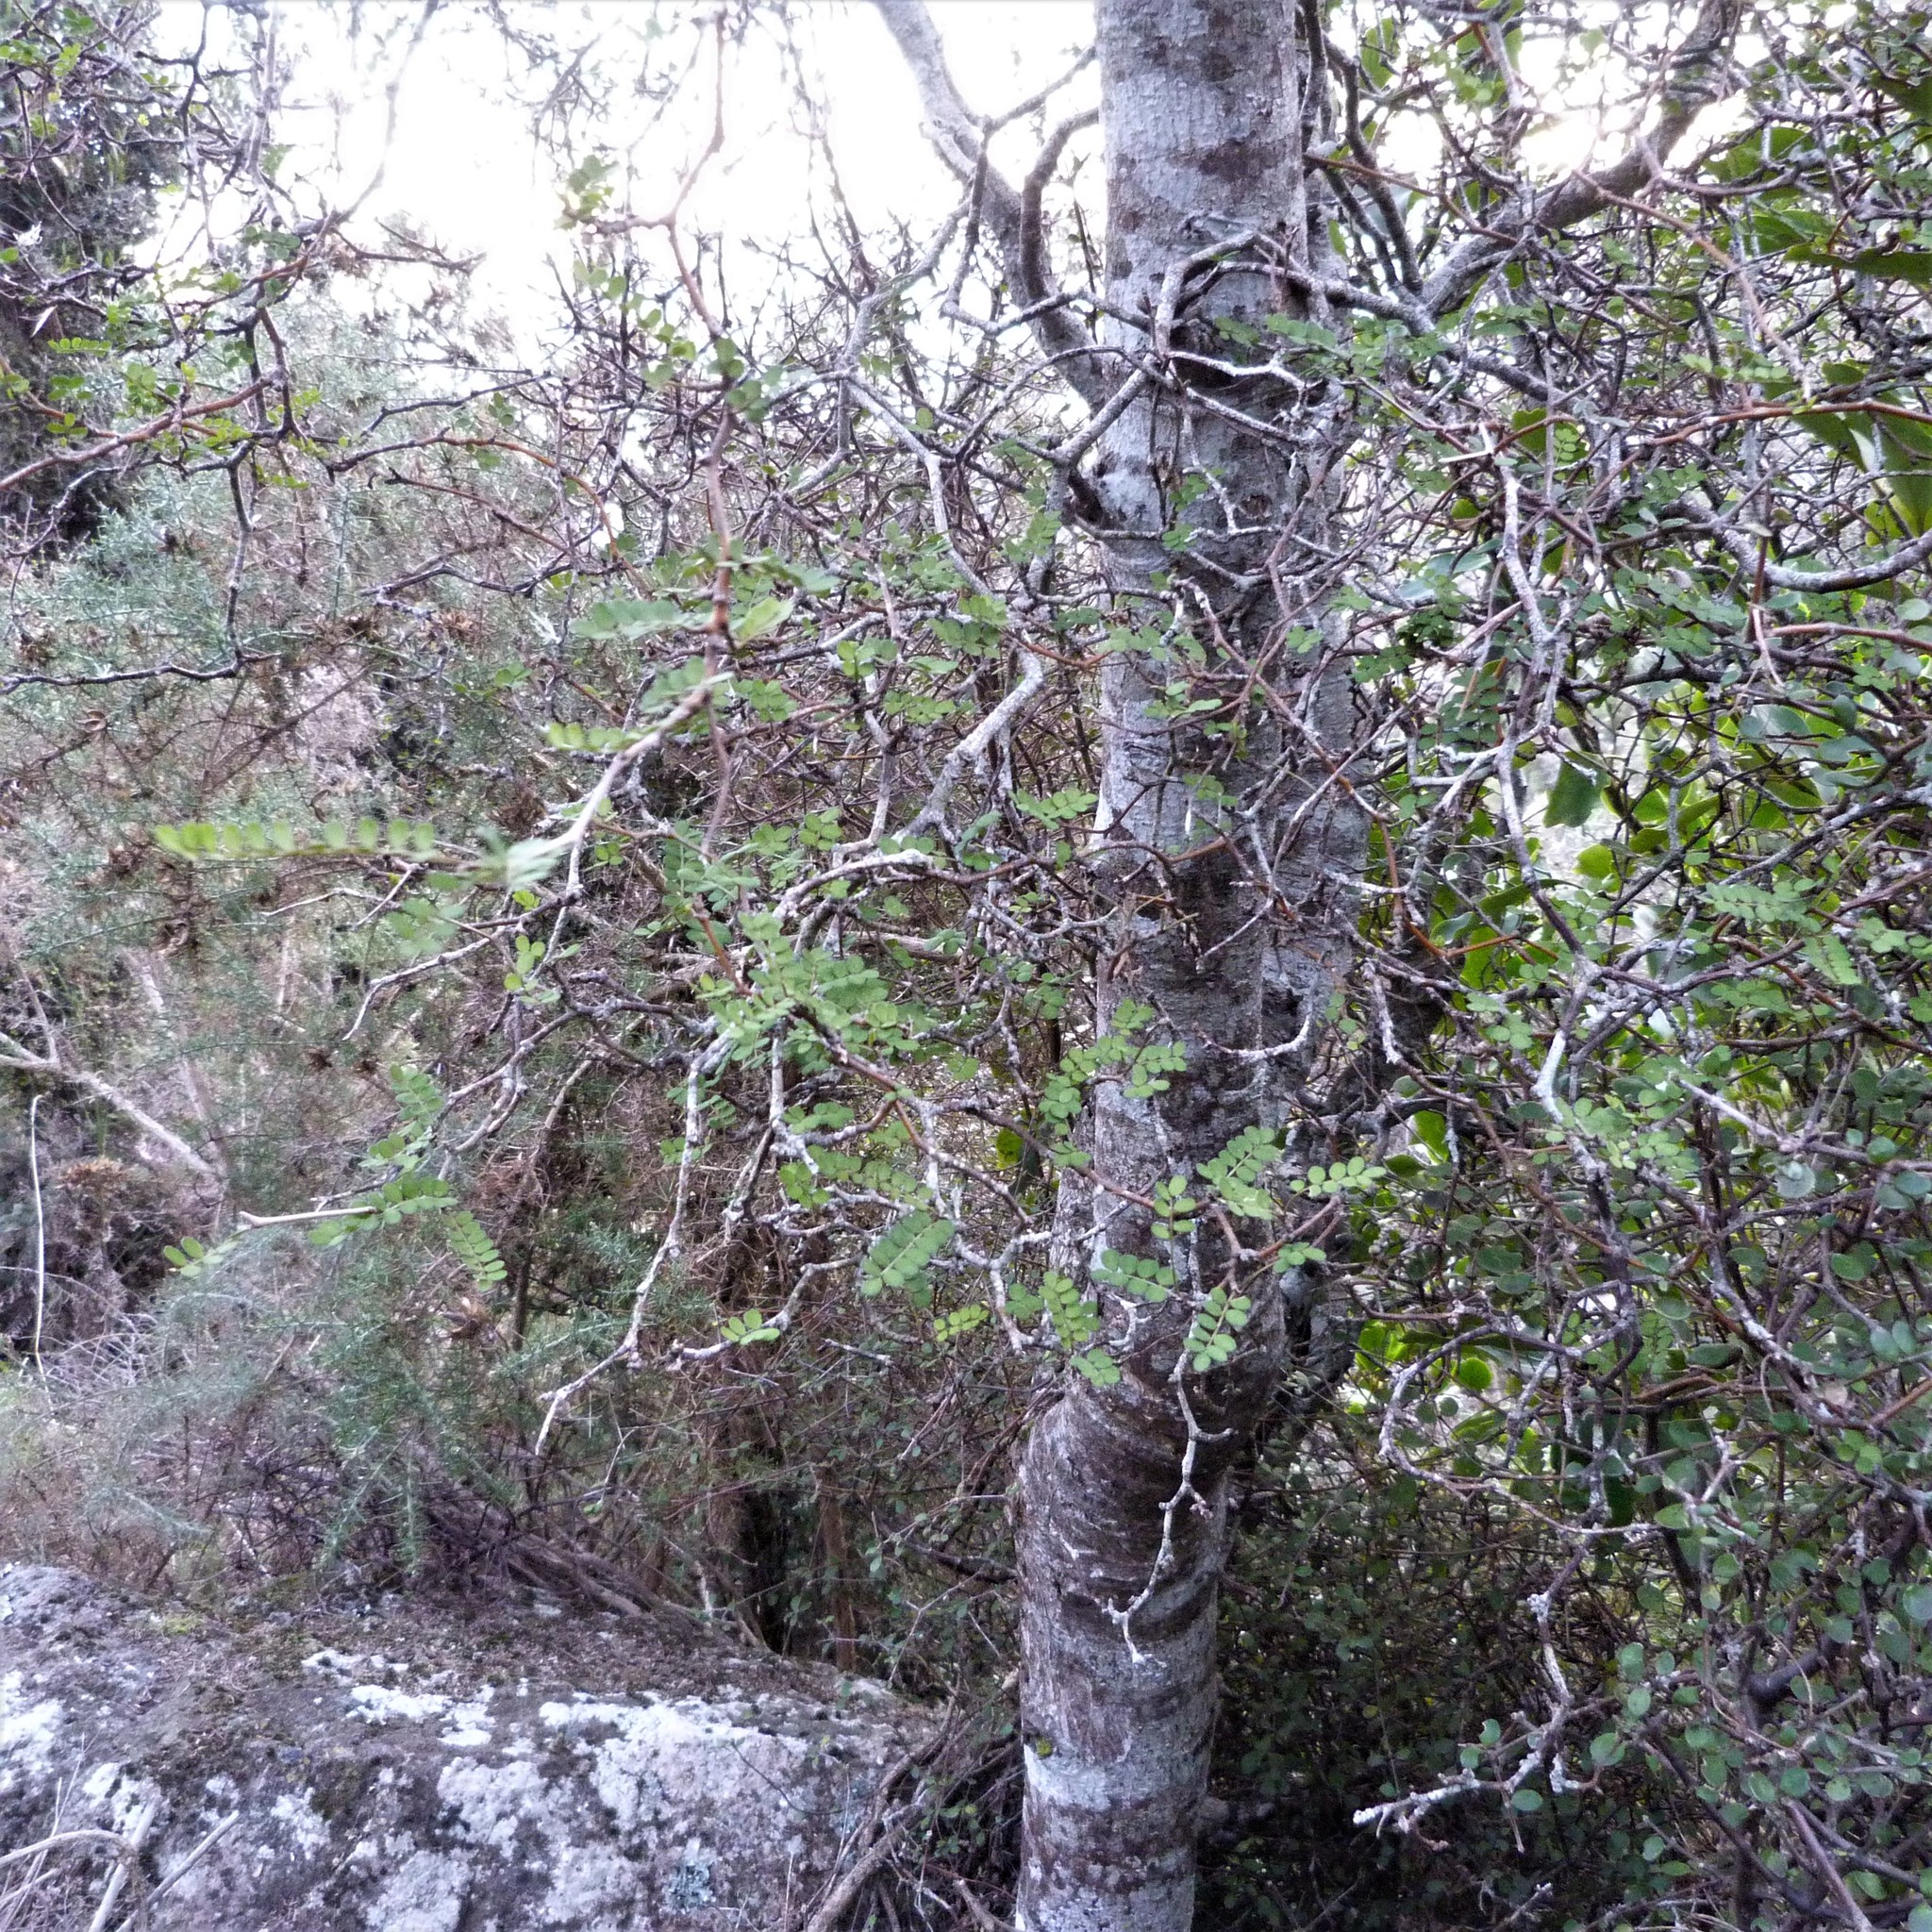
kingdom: Plantae
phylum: Tracheophyta
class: Magnoliopsida
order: Fabales
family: Fabaceae
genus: Sophora
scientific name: Sophora microphylla
